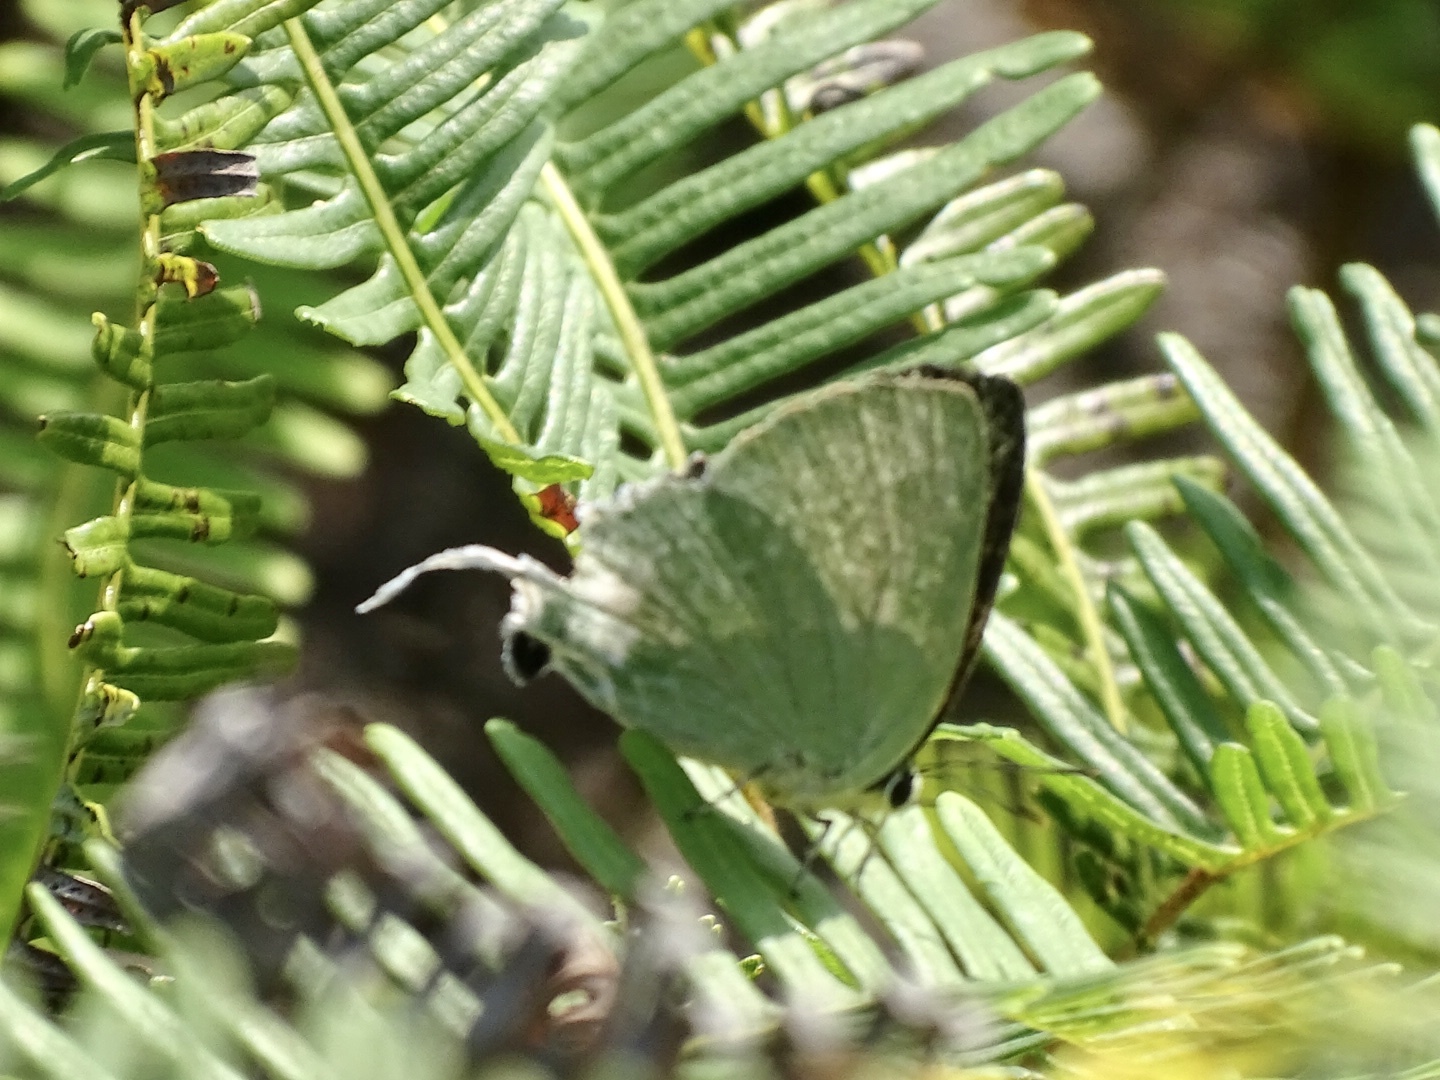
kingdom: Animalia
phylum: Arthropoda
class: Insecta
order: Lepidoptera
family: Lycaenidae
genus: Artipe
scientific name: Artipe eryx
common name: Green flash
